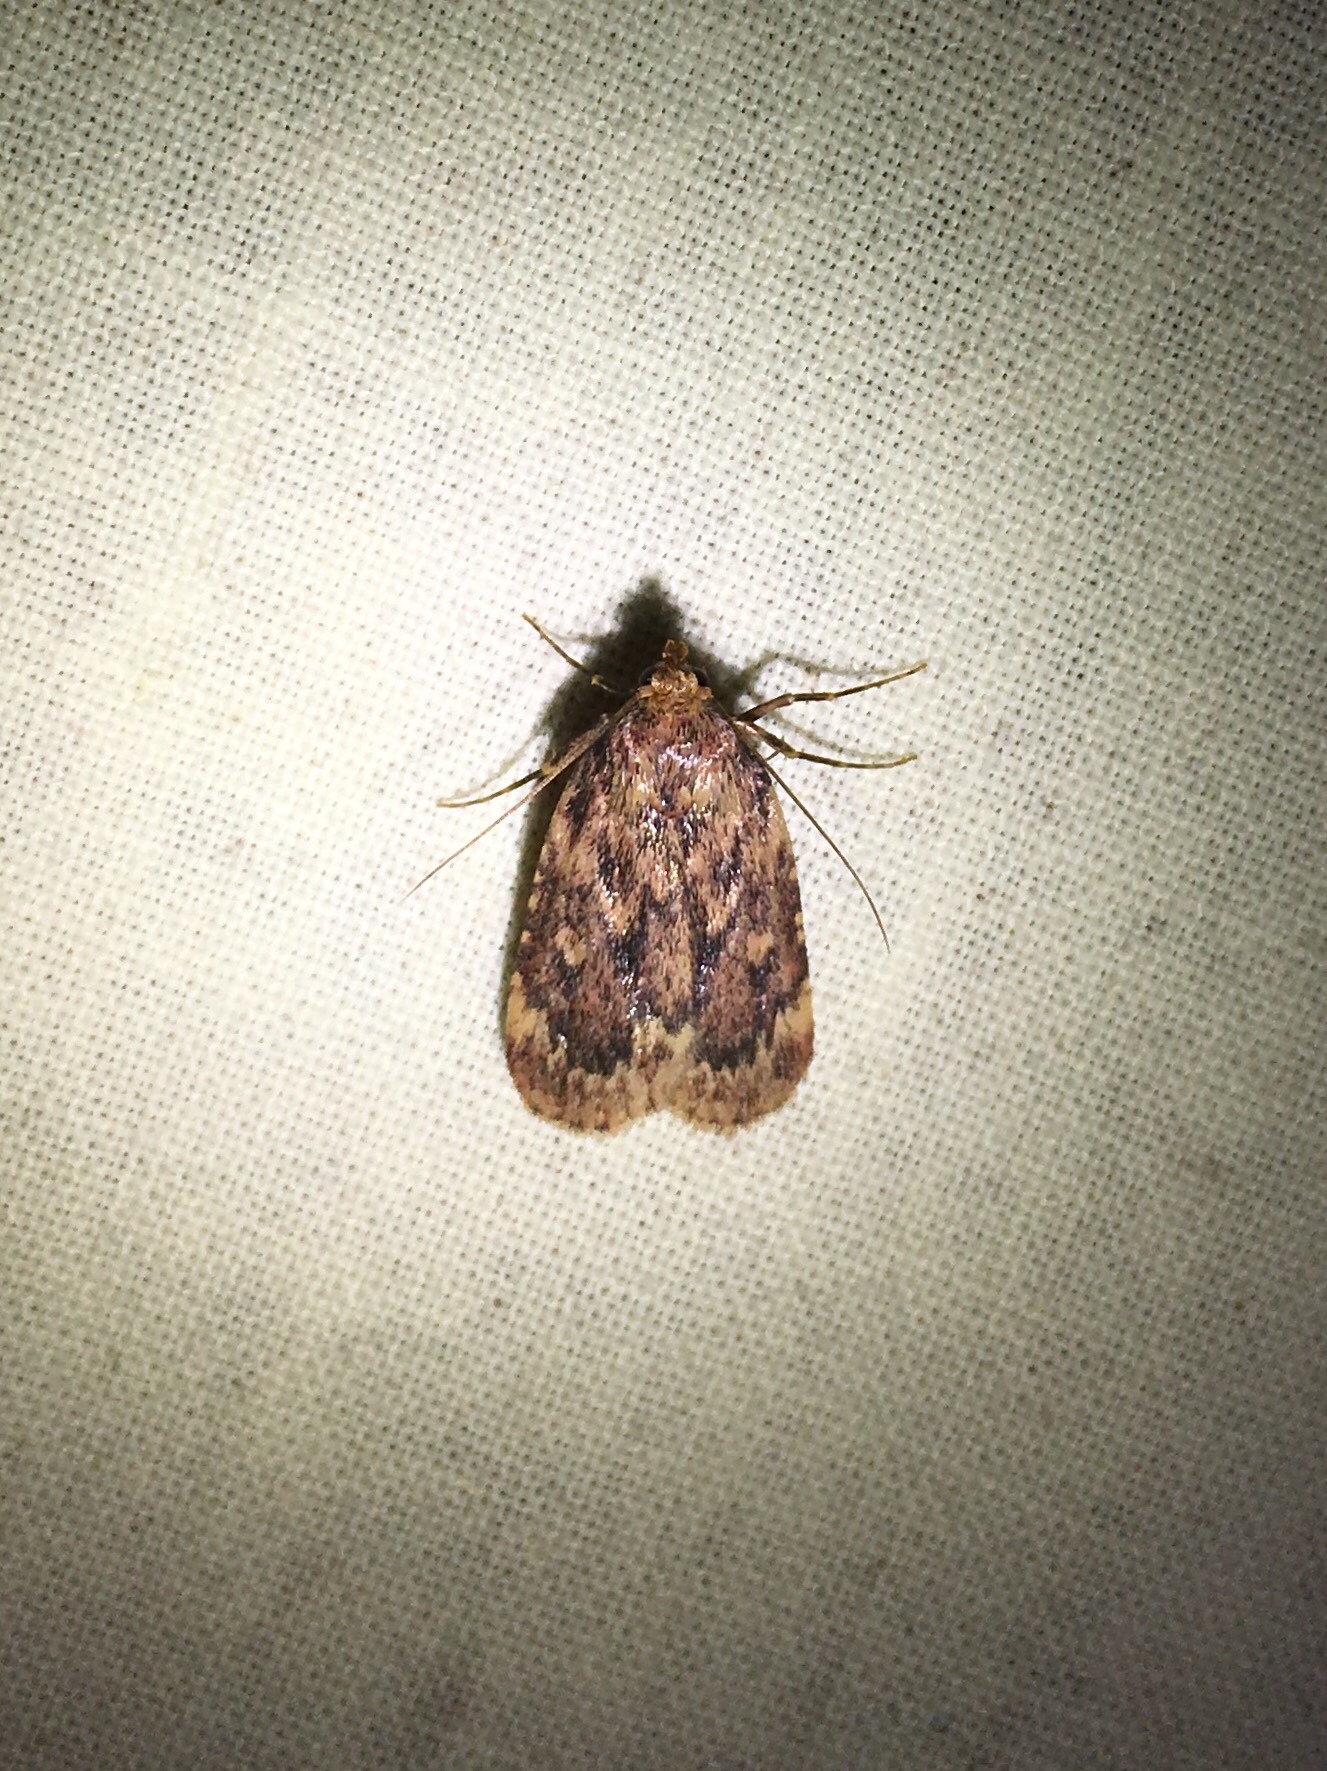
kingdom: Animalia
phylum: Arthropoda
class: Insecta
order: Lepidoptera
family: Pyralidae
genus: Aglossa
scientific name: Aglossa cuprina
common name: Grease moth
